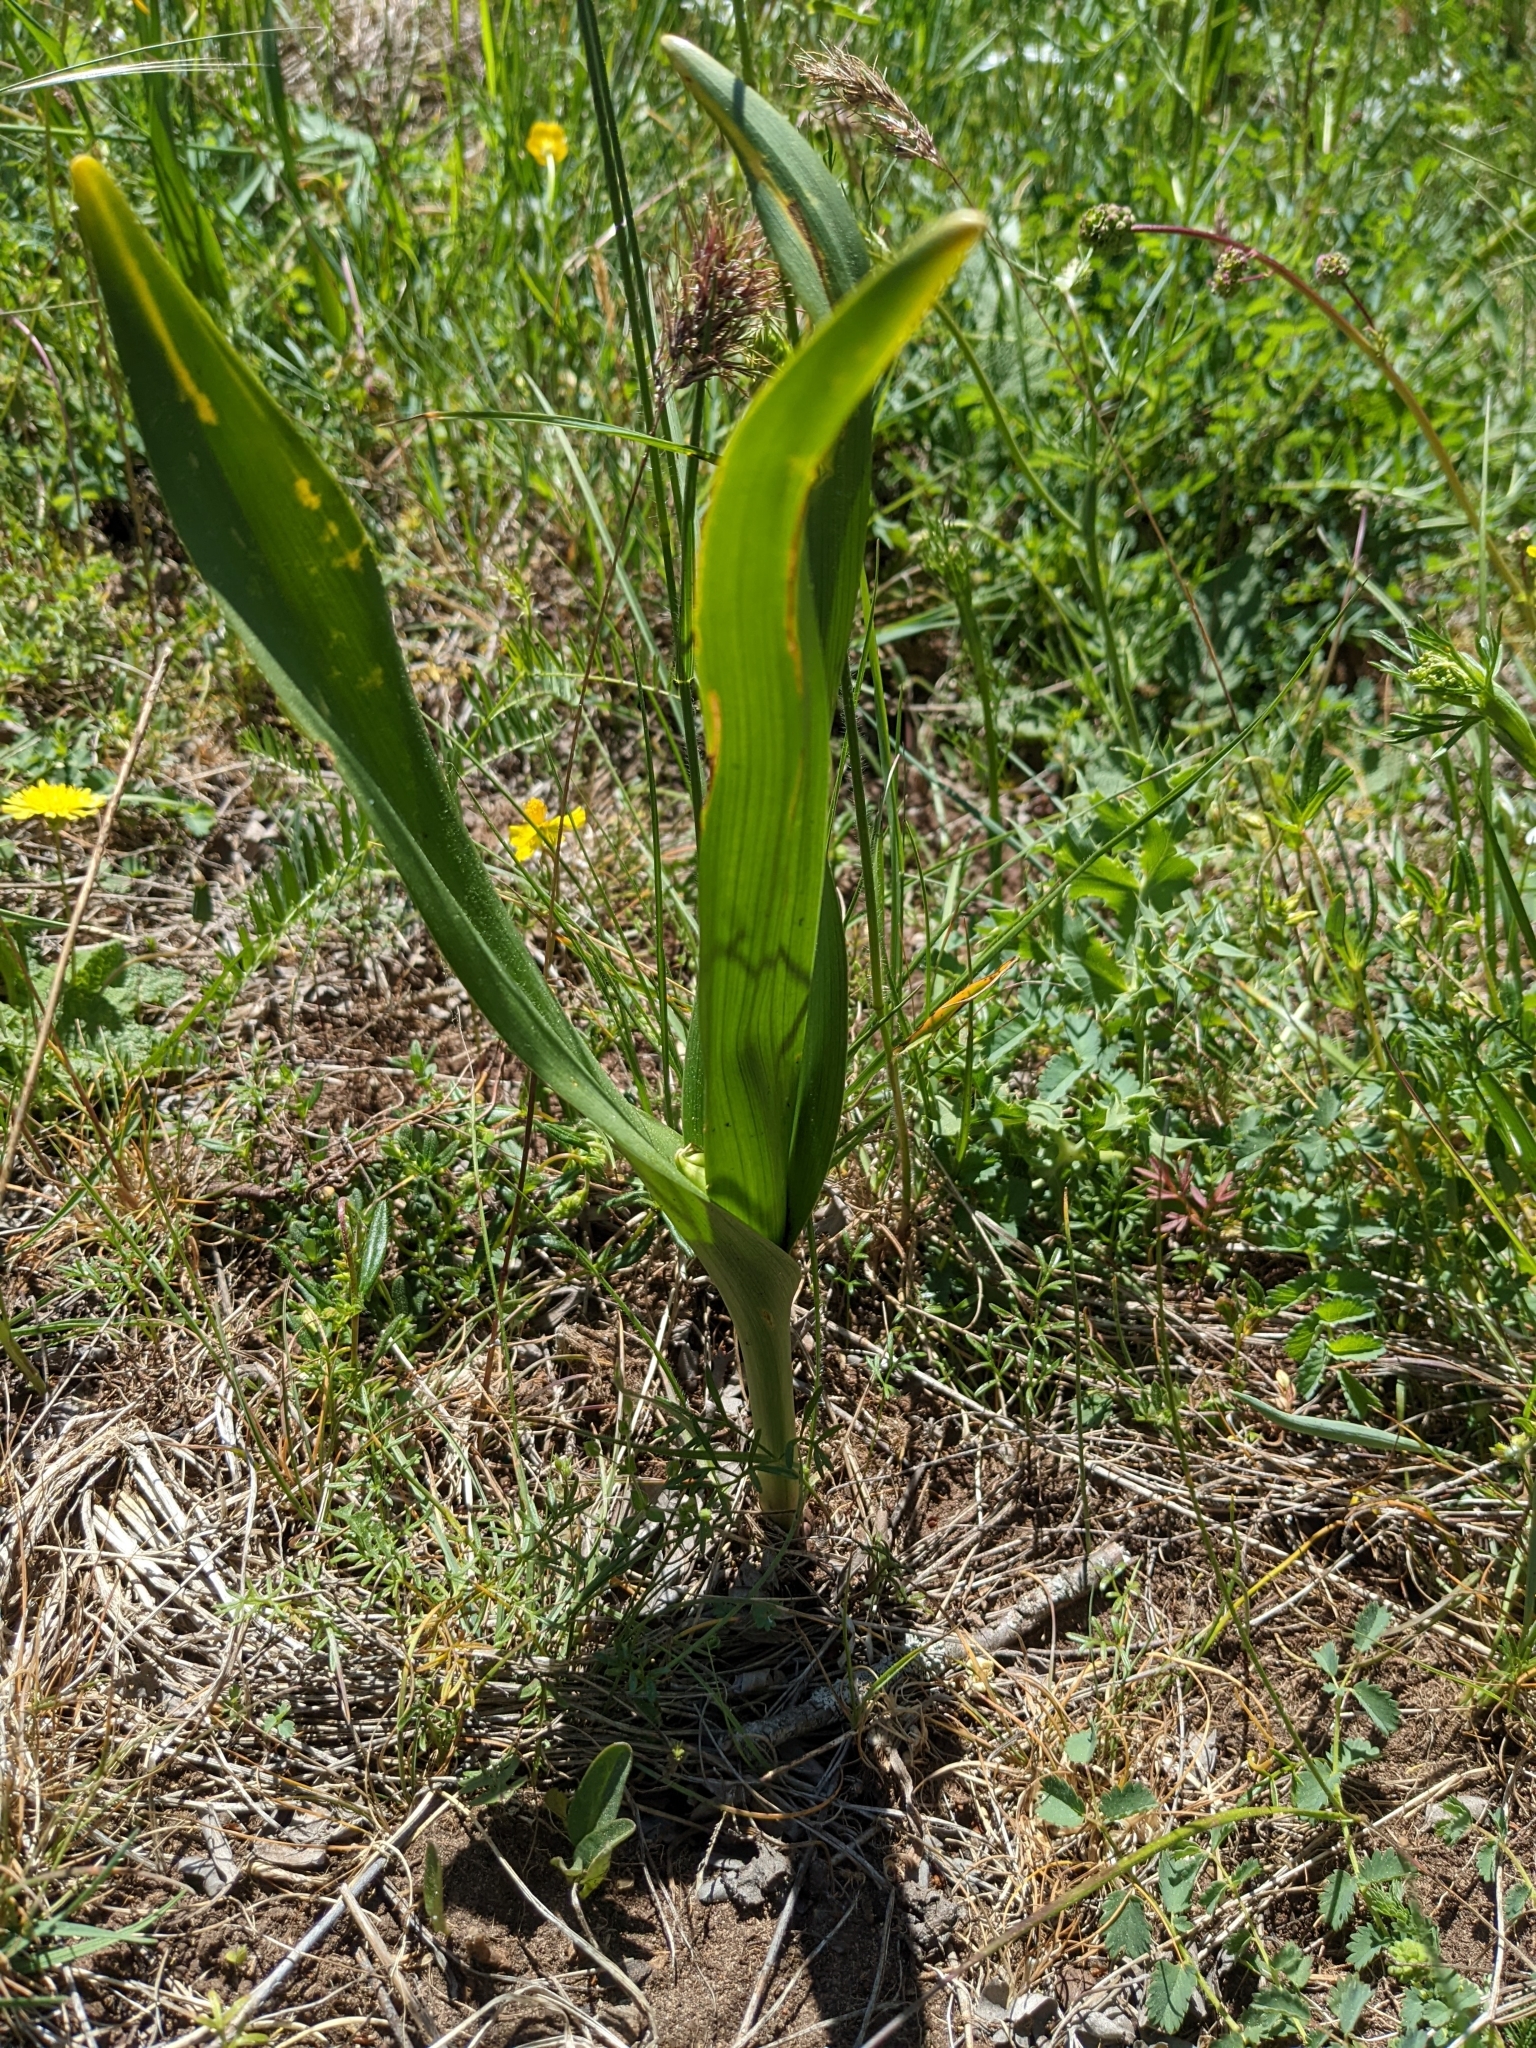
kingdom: Plantae
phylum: Tracheophyta
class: Liliopsida
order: Liliales
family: Colchicaceae
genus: Colchicum
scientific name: Colchicum autumnale
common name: Autumn crocus
